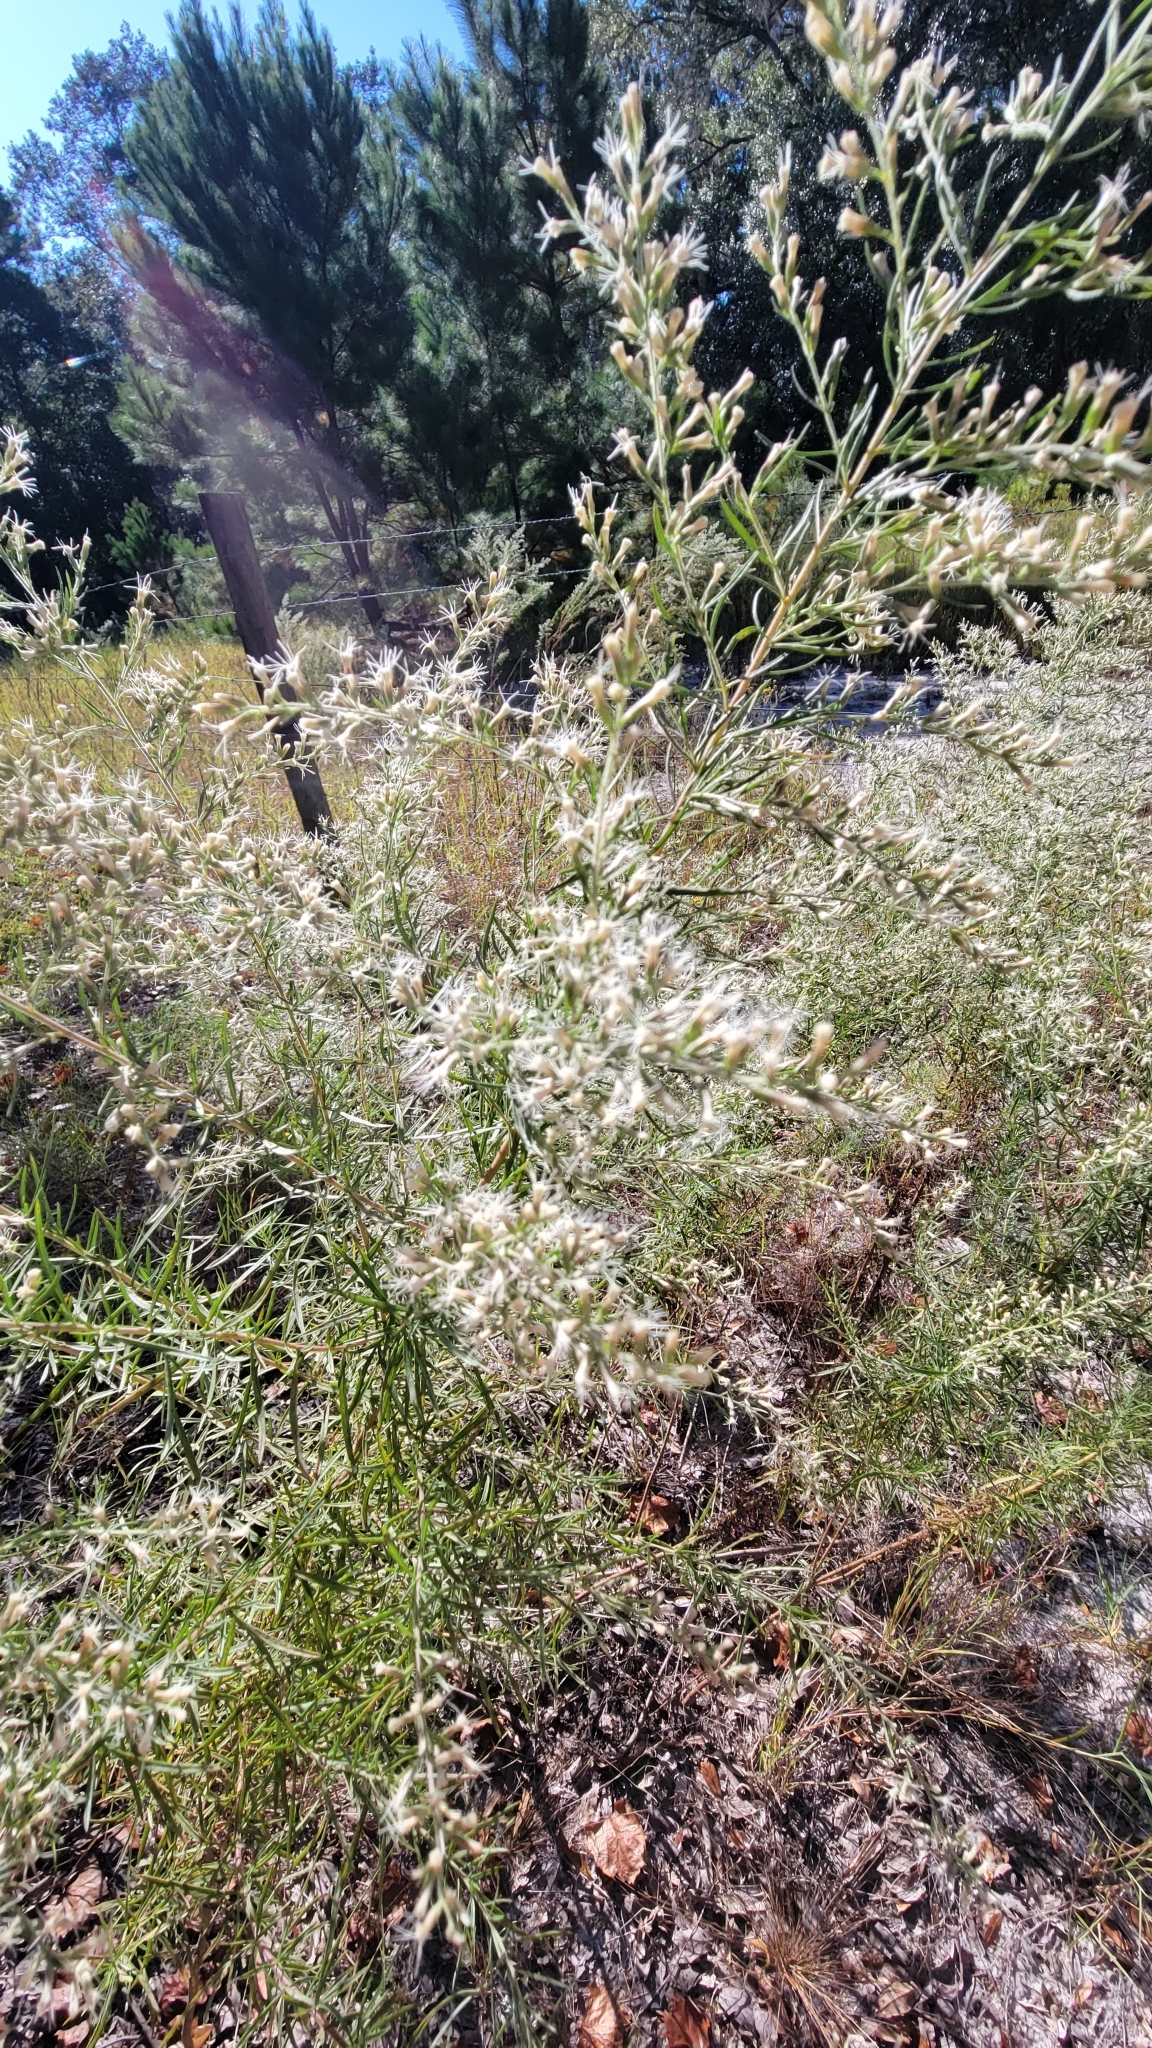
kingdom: Plantae
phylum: Tracheophyta
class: Magnoliopsida
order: Asterales
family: Asteraceae
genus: Eupatorium
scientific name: Eupatorium compositifolium
